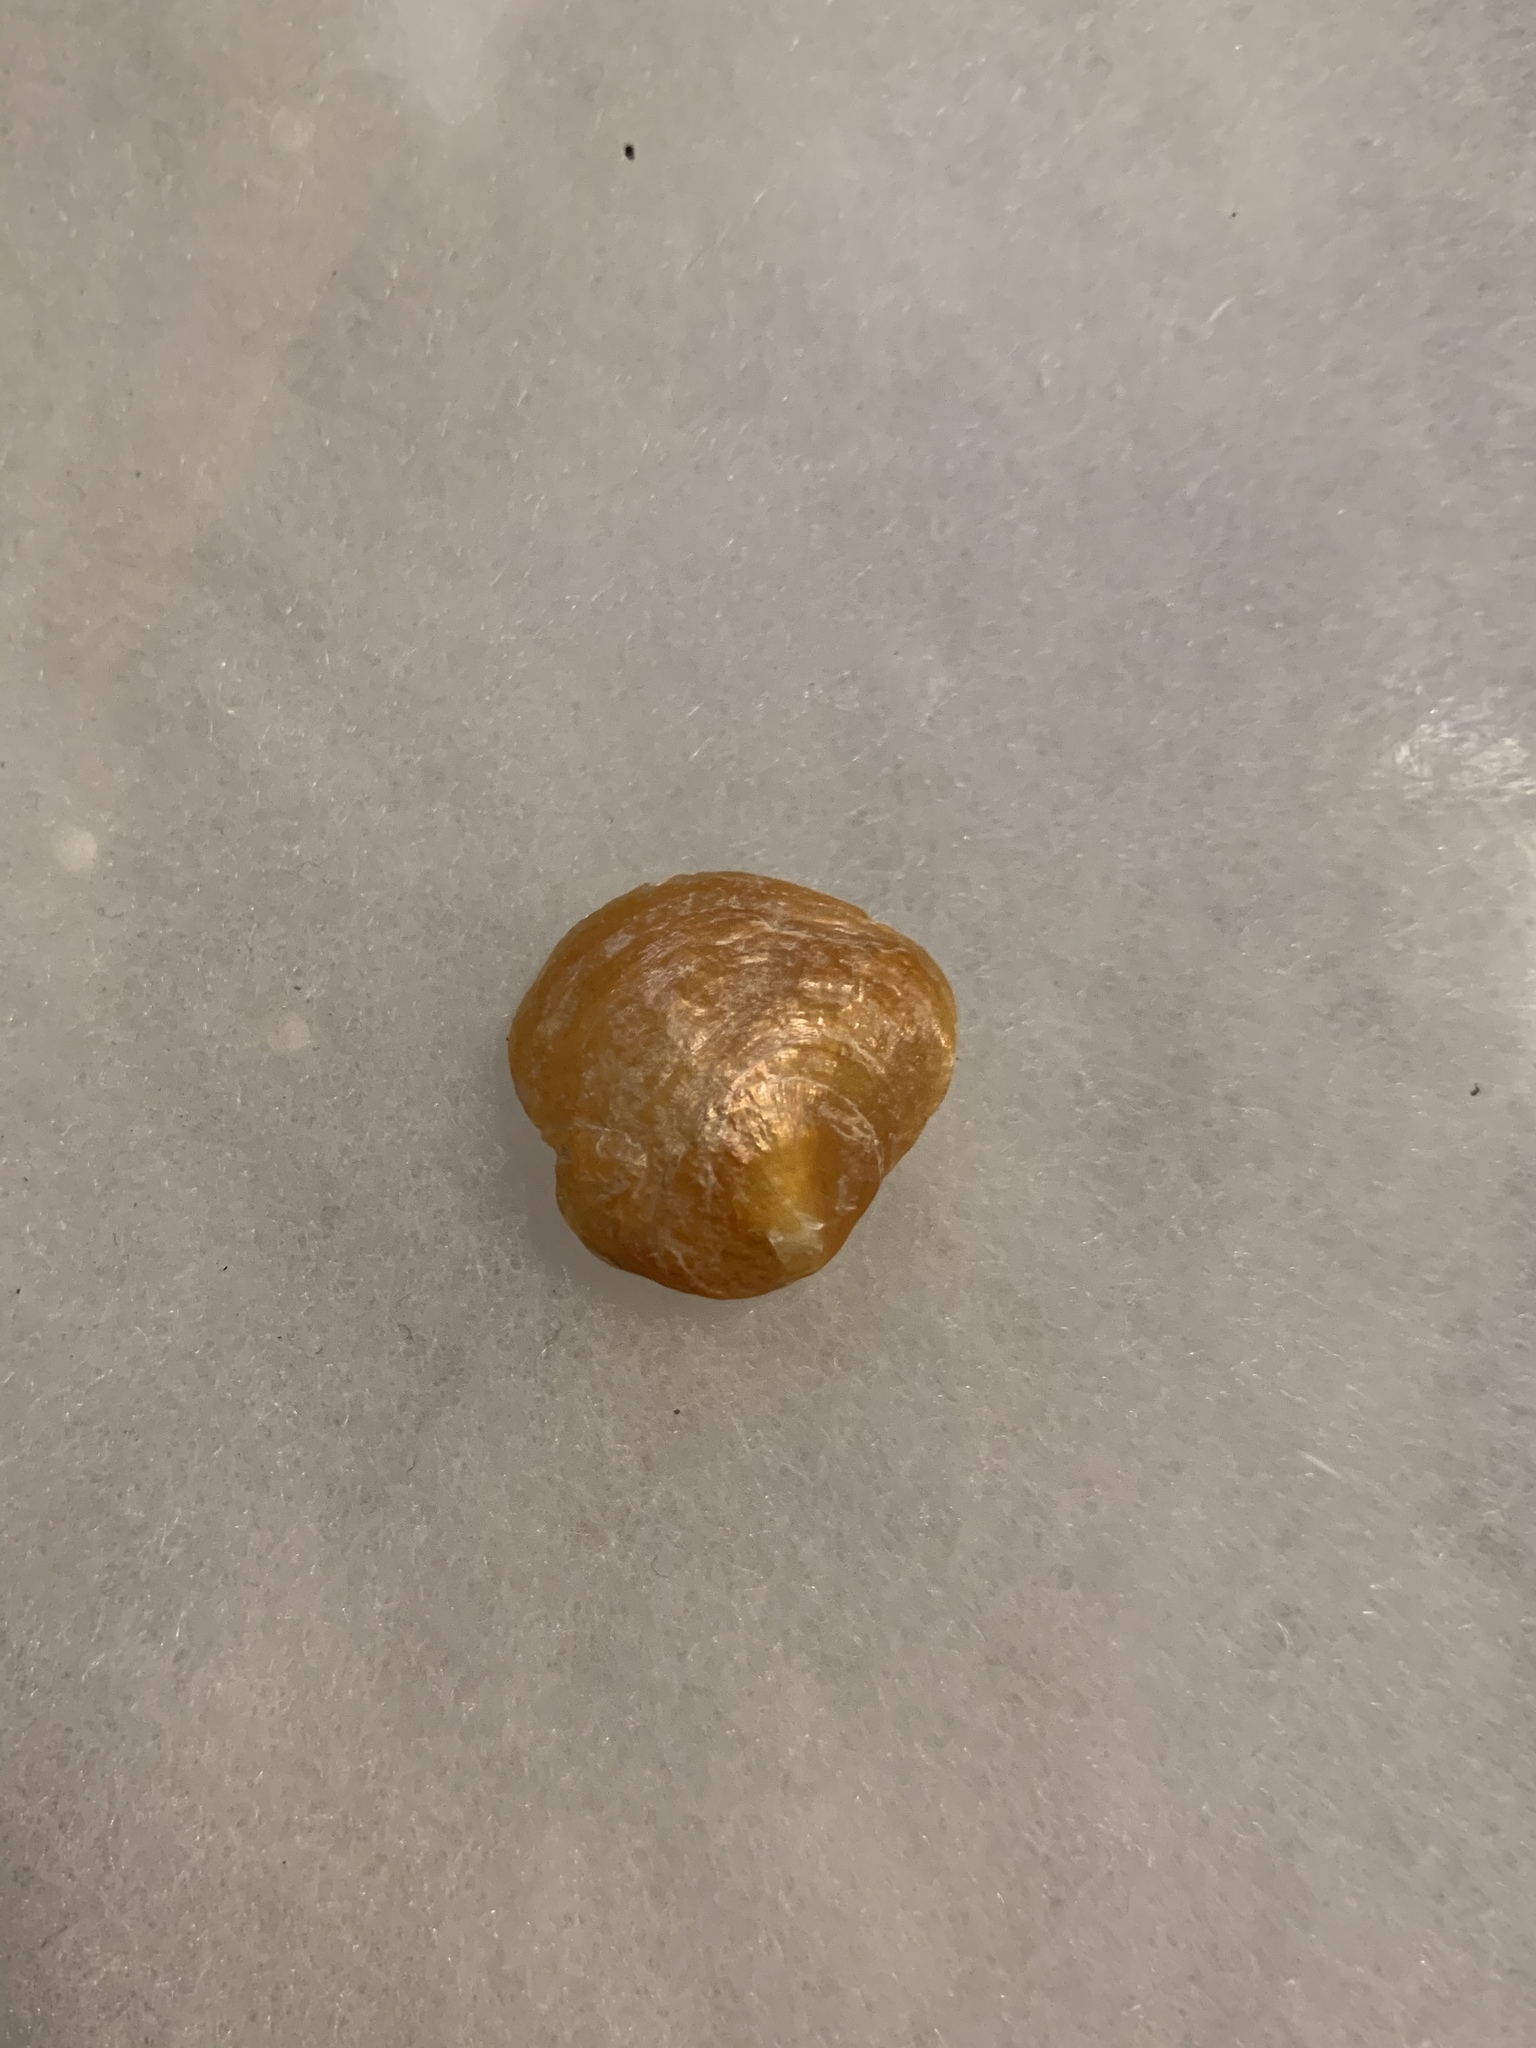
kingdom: Animalia
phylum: Mollusca
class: Bivalvia
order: Pectinida
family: Anomiidae
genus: Anomia
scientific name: Anomia simplex
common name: Common jingle shell
